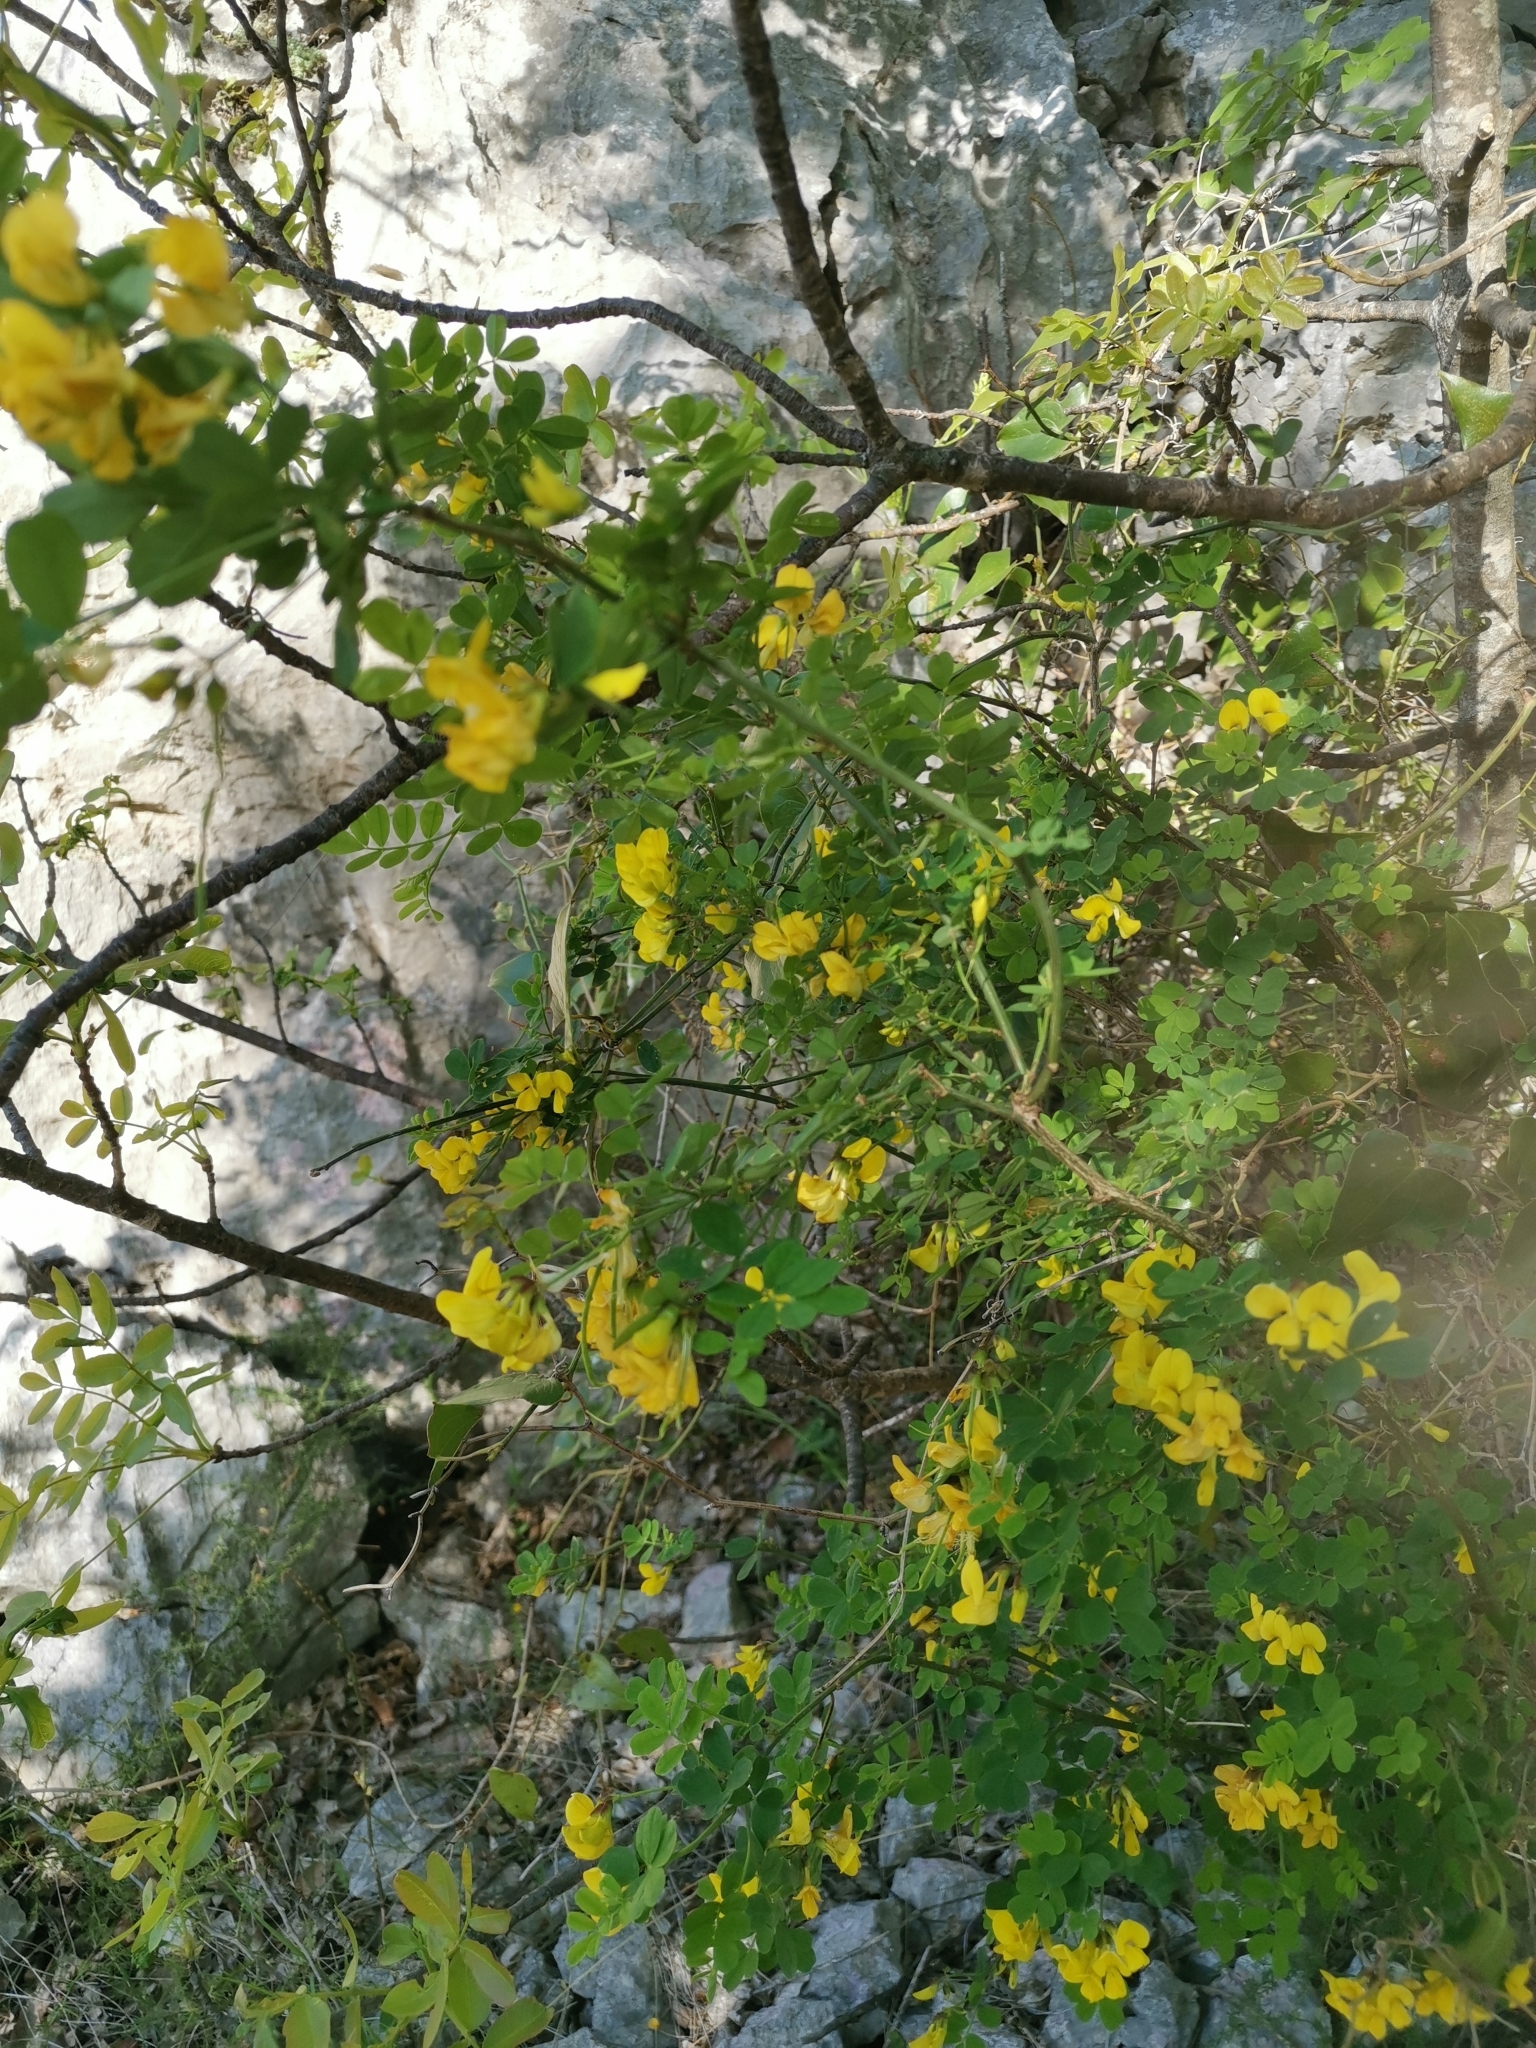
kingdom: Plantae
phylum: Tracheophyta
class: Magnoliopsida
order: Fabales
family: Fabaceae
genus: Hippocrepis
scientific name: Hippocrepis emerus
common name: Scorpion senna
